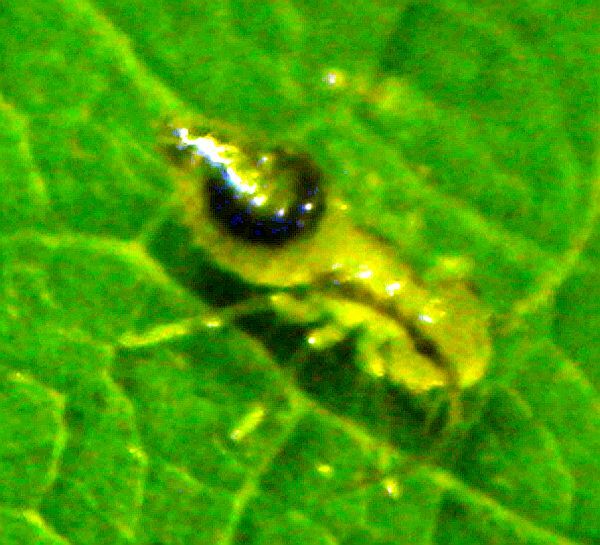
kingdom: Animalia
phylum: Arthropoda
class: Insecta
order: Psocodea
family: Amphipsocidae
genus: Polypsocus
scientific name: Polypsocus corruptus
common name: Corrupt barklouse
